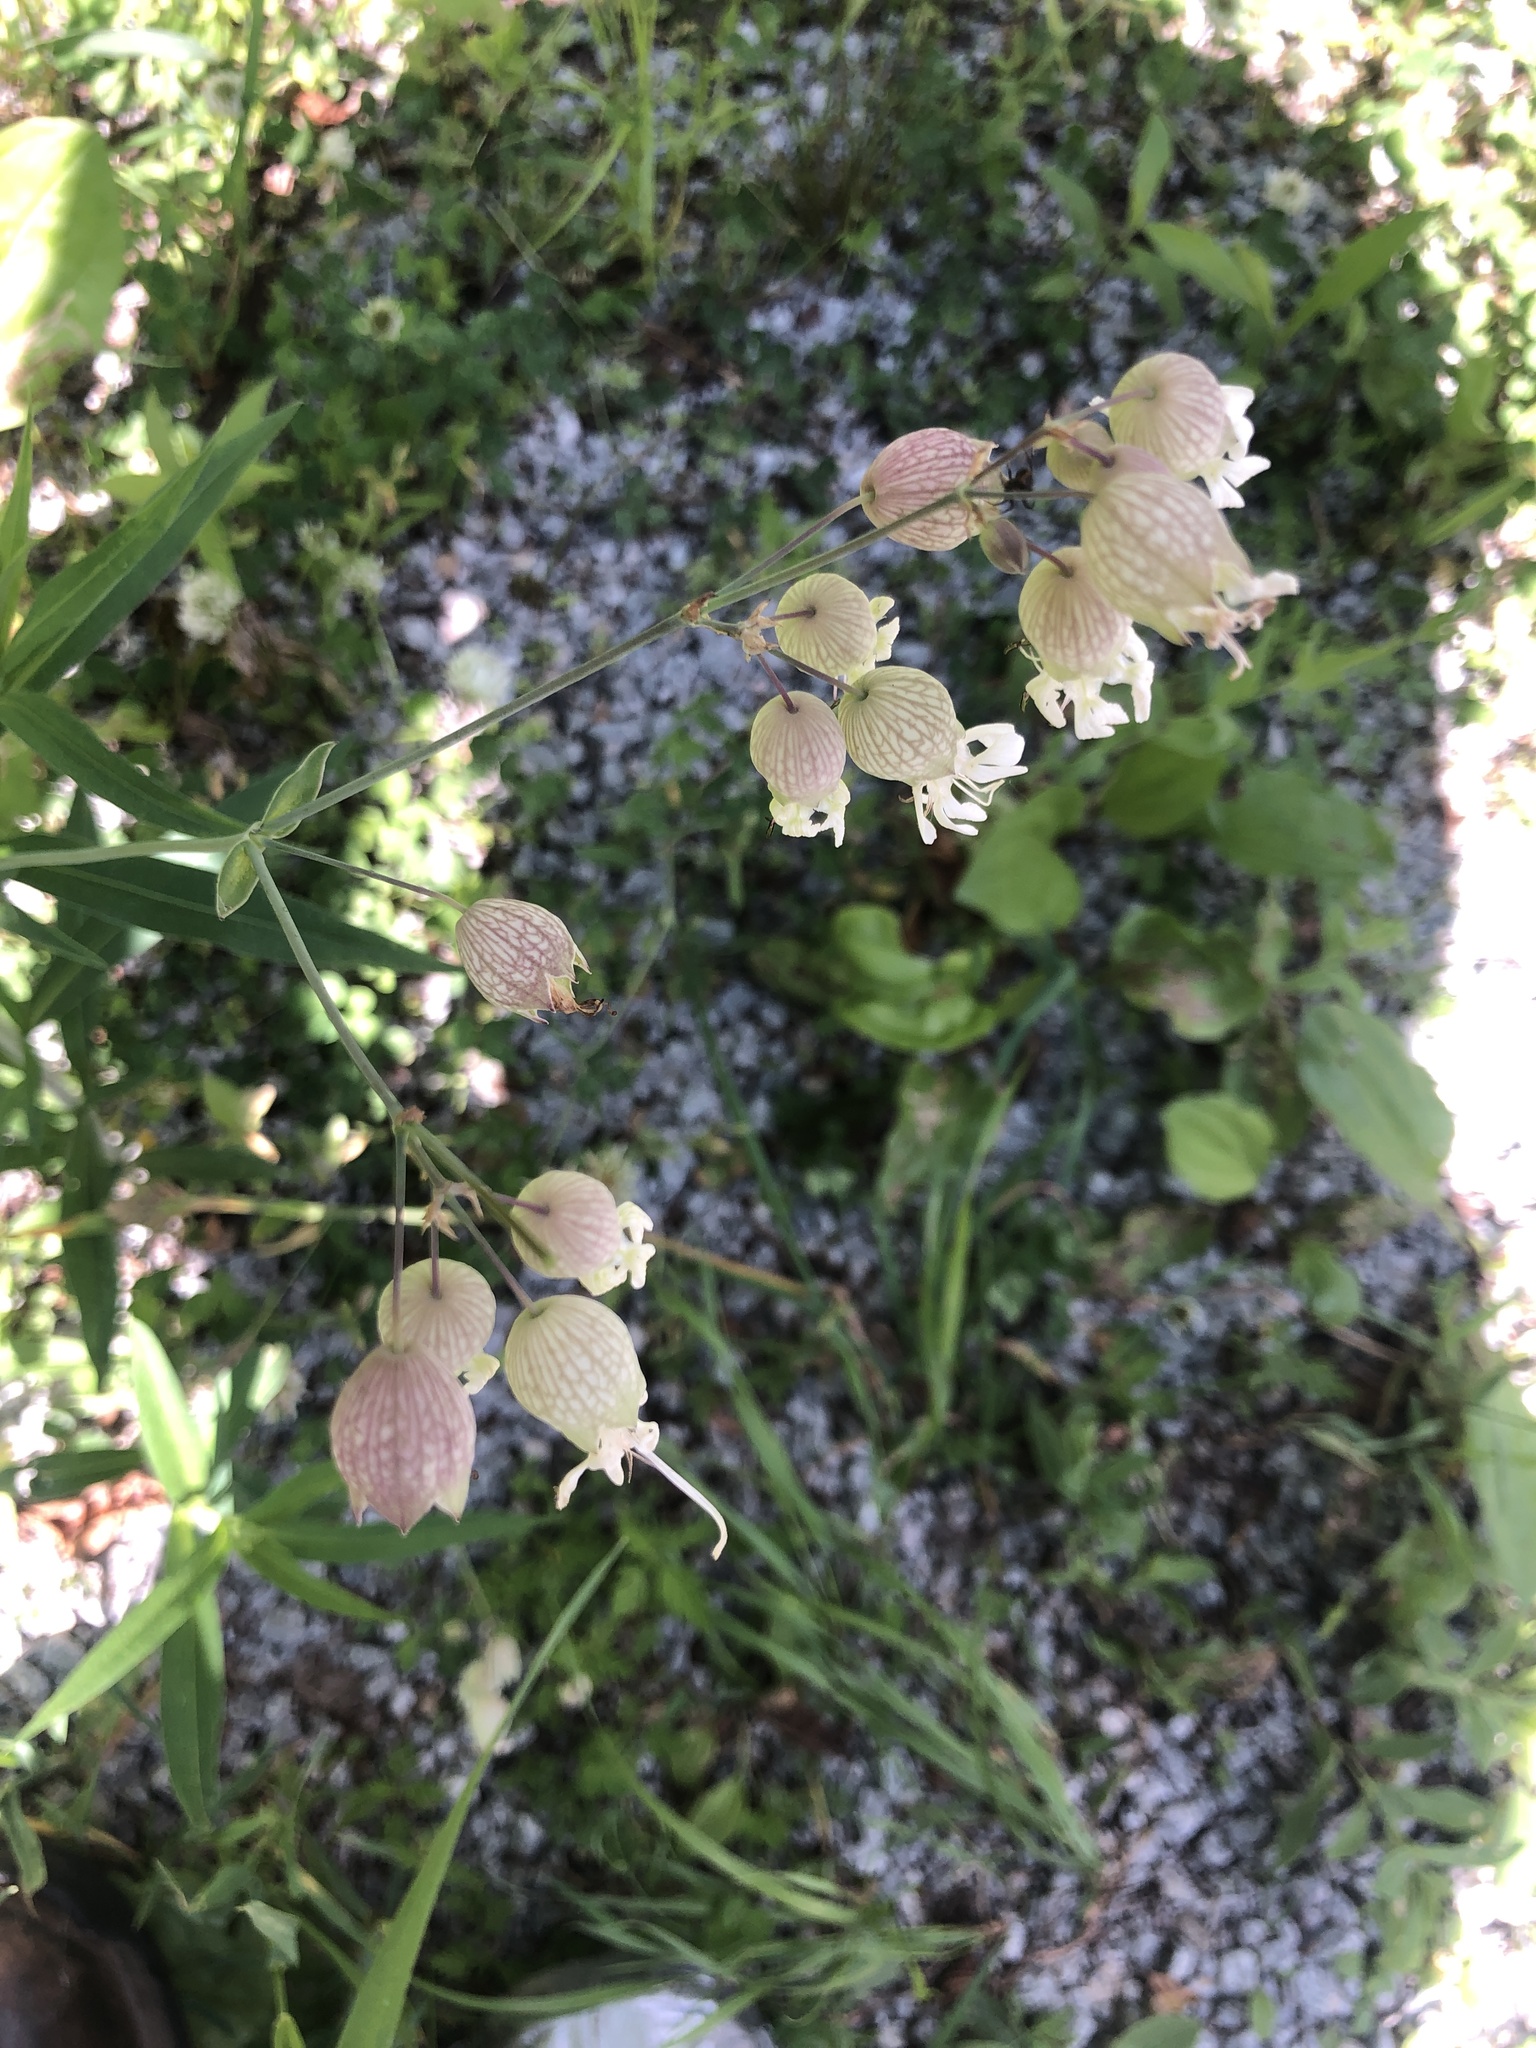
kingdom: Plantae
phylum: Tracheophyta
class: Magnoliopsida
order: Caryophyllales
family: Caryophyllaceae
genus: Silene
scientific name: Silene vulgaris
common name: Bladder campion
